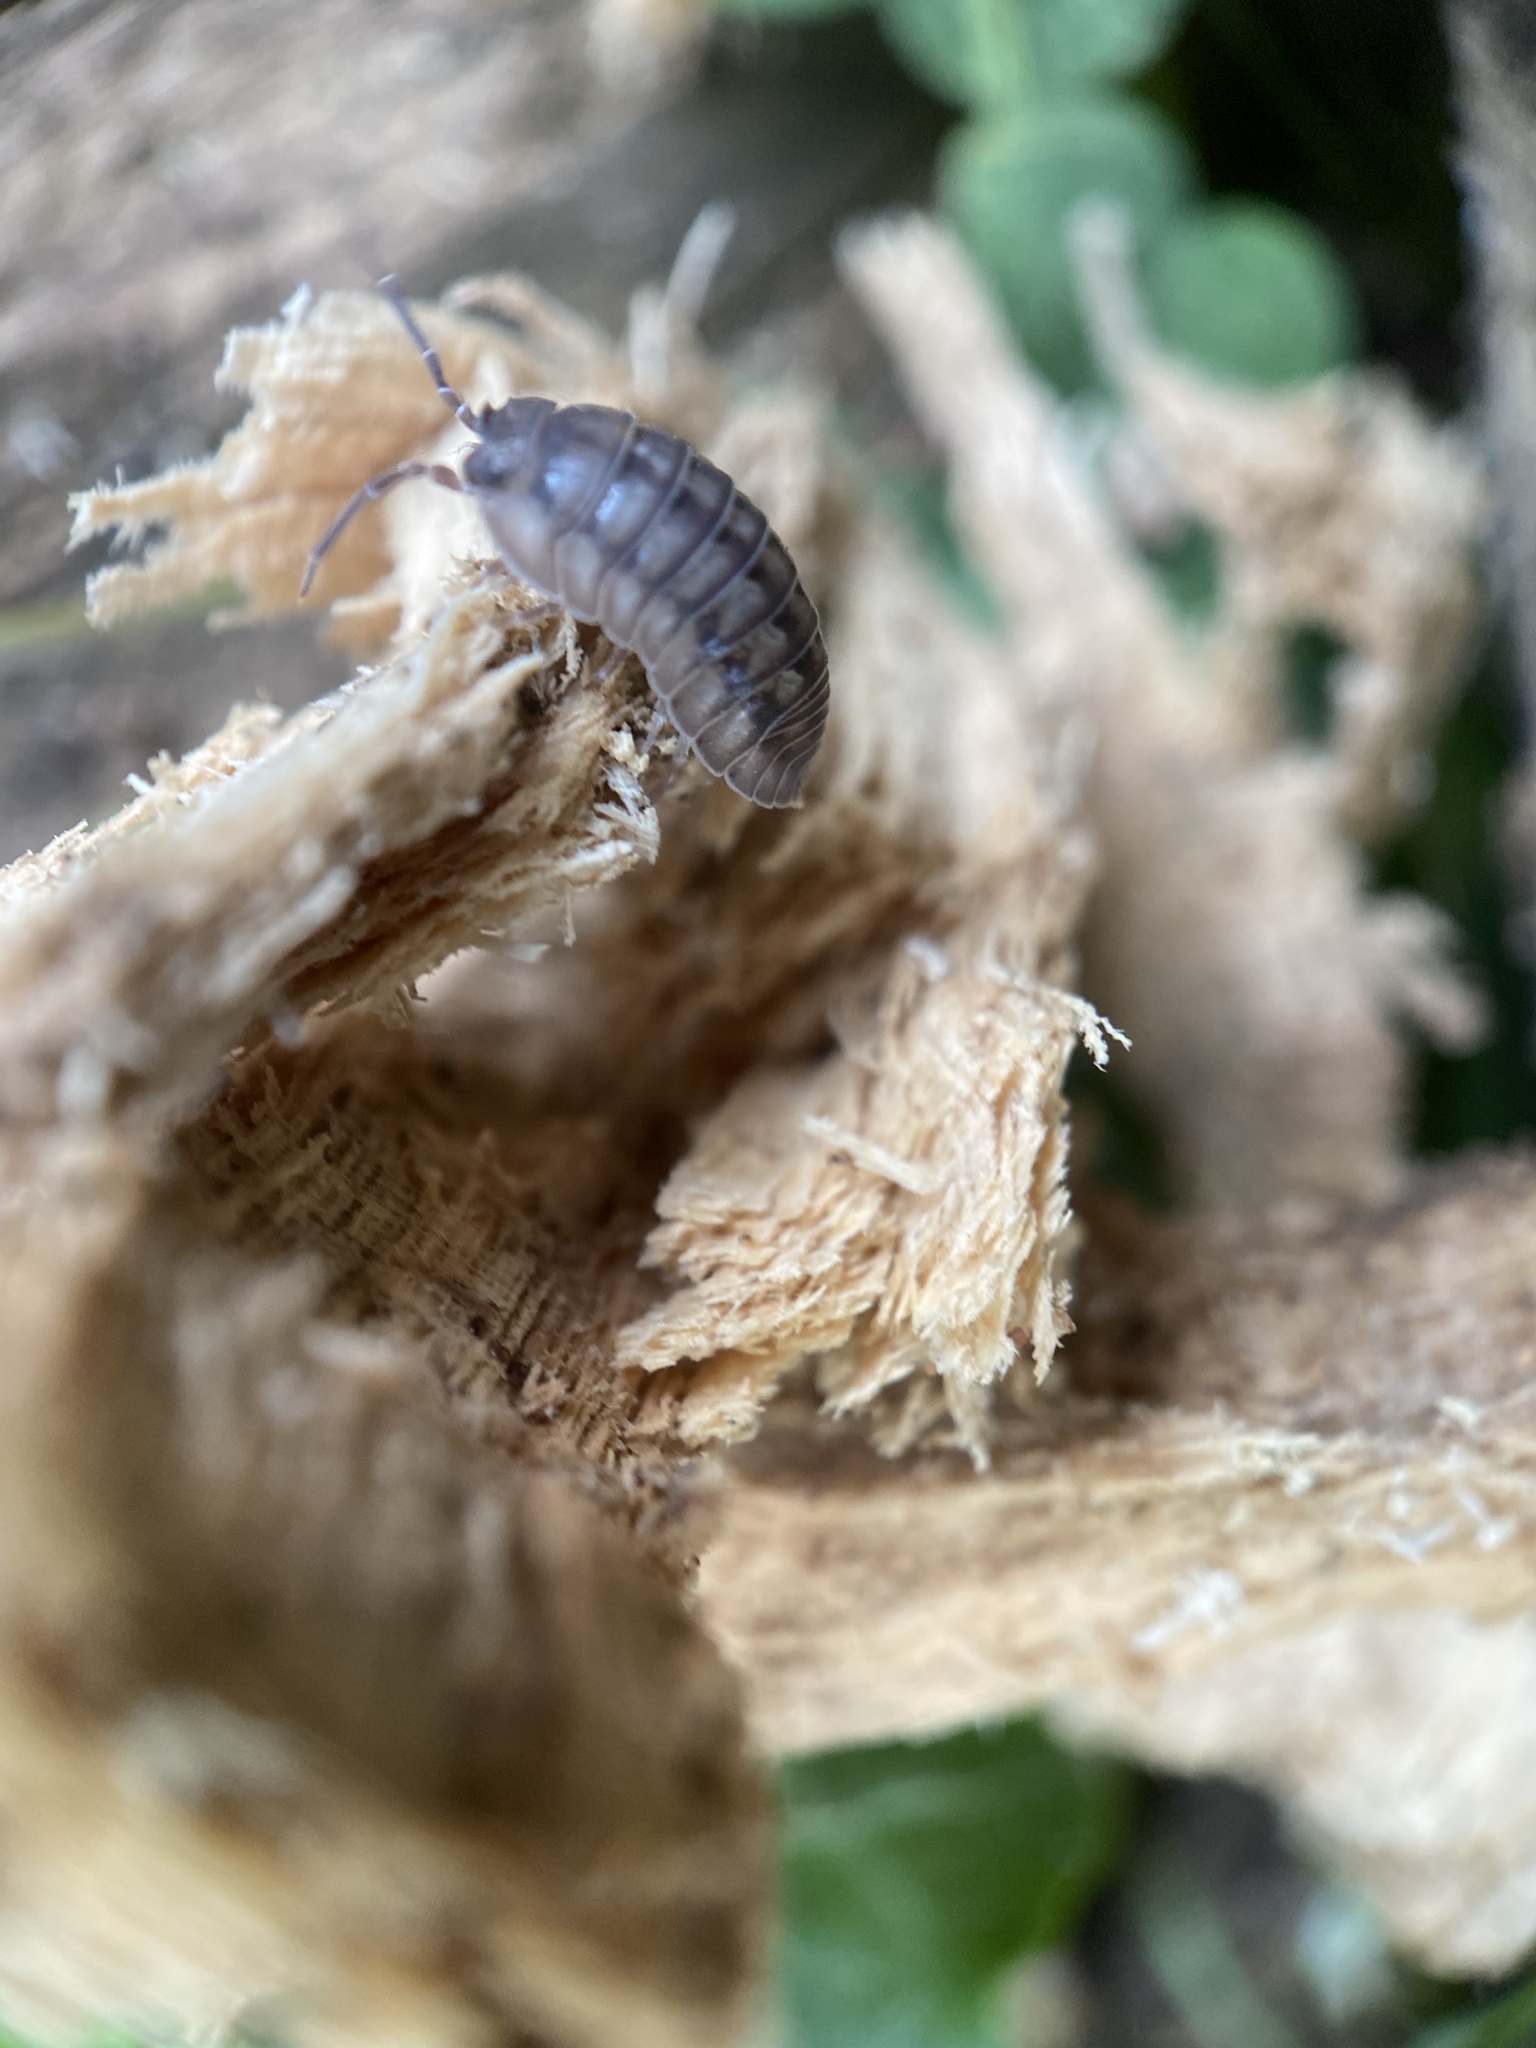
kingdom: Animalia
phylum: Arthropoda
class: Malacostraca
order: Isopoda
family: Armadillidiidae
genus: Armadillidium
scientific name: Armadillidium nasatum
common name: Isopod
